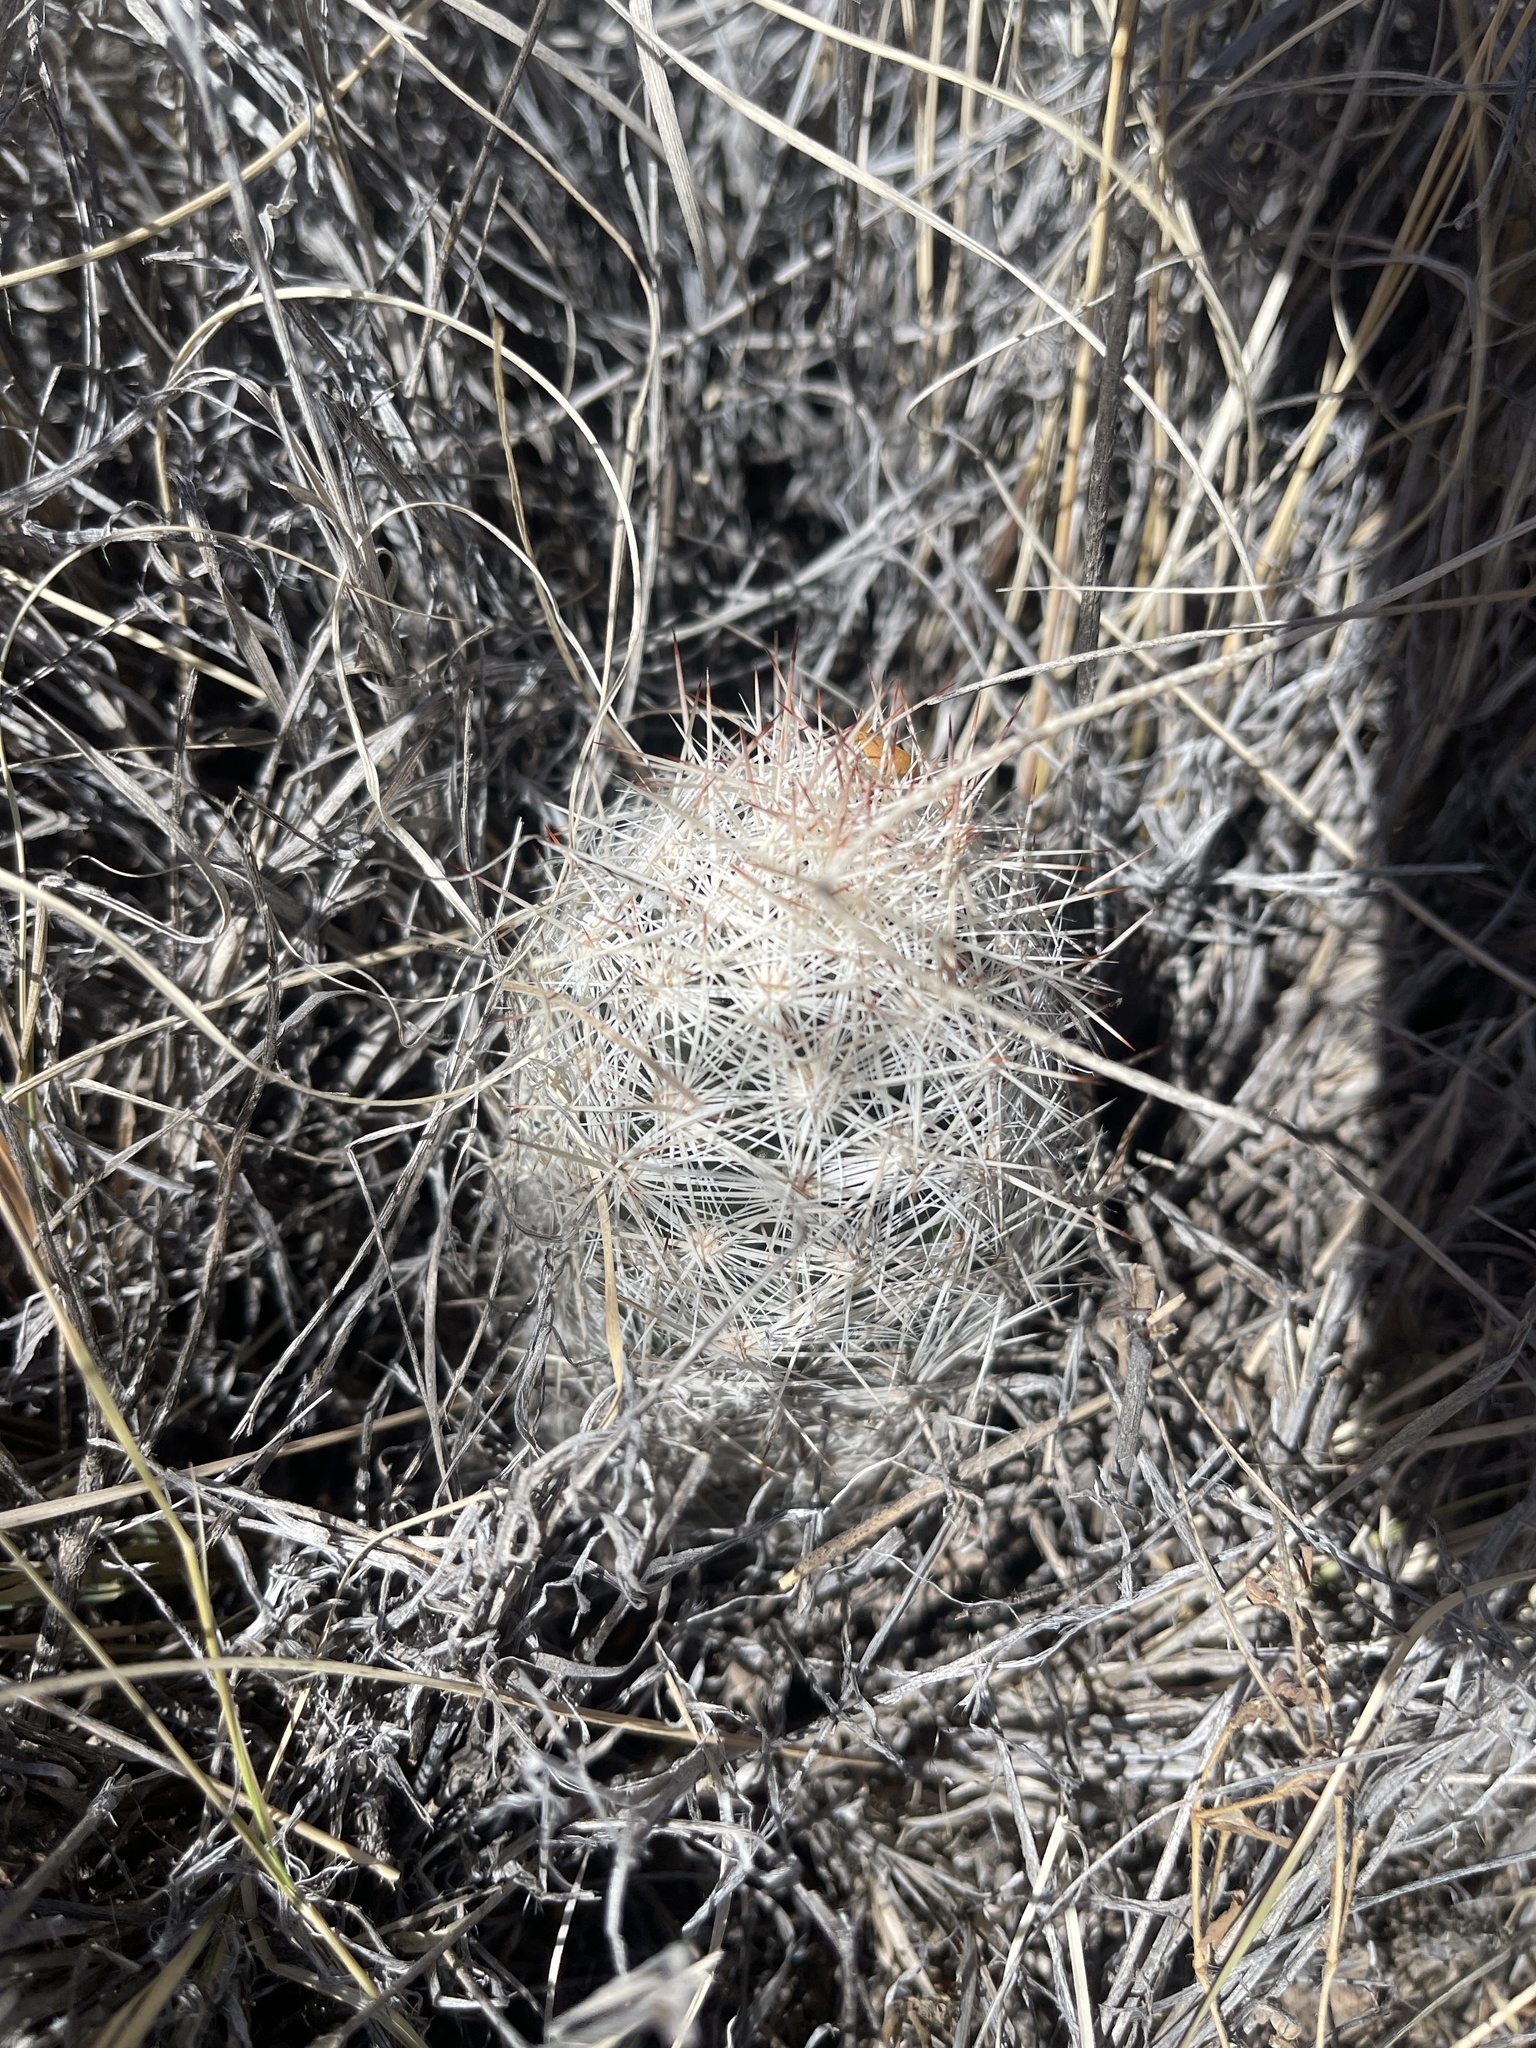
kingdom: Plantae
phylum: Tracheophyta
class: Magnoliopsida
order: Caryophyllales
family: Cactaceae
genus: Pelecyphora
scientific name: Pelecyphora vivipara
